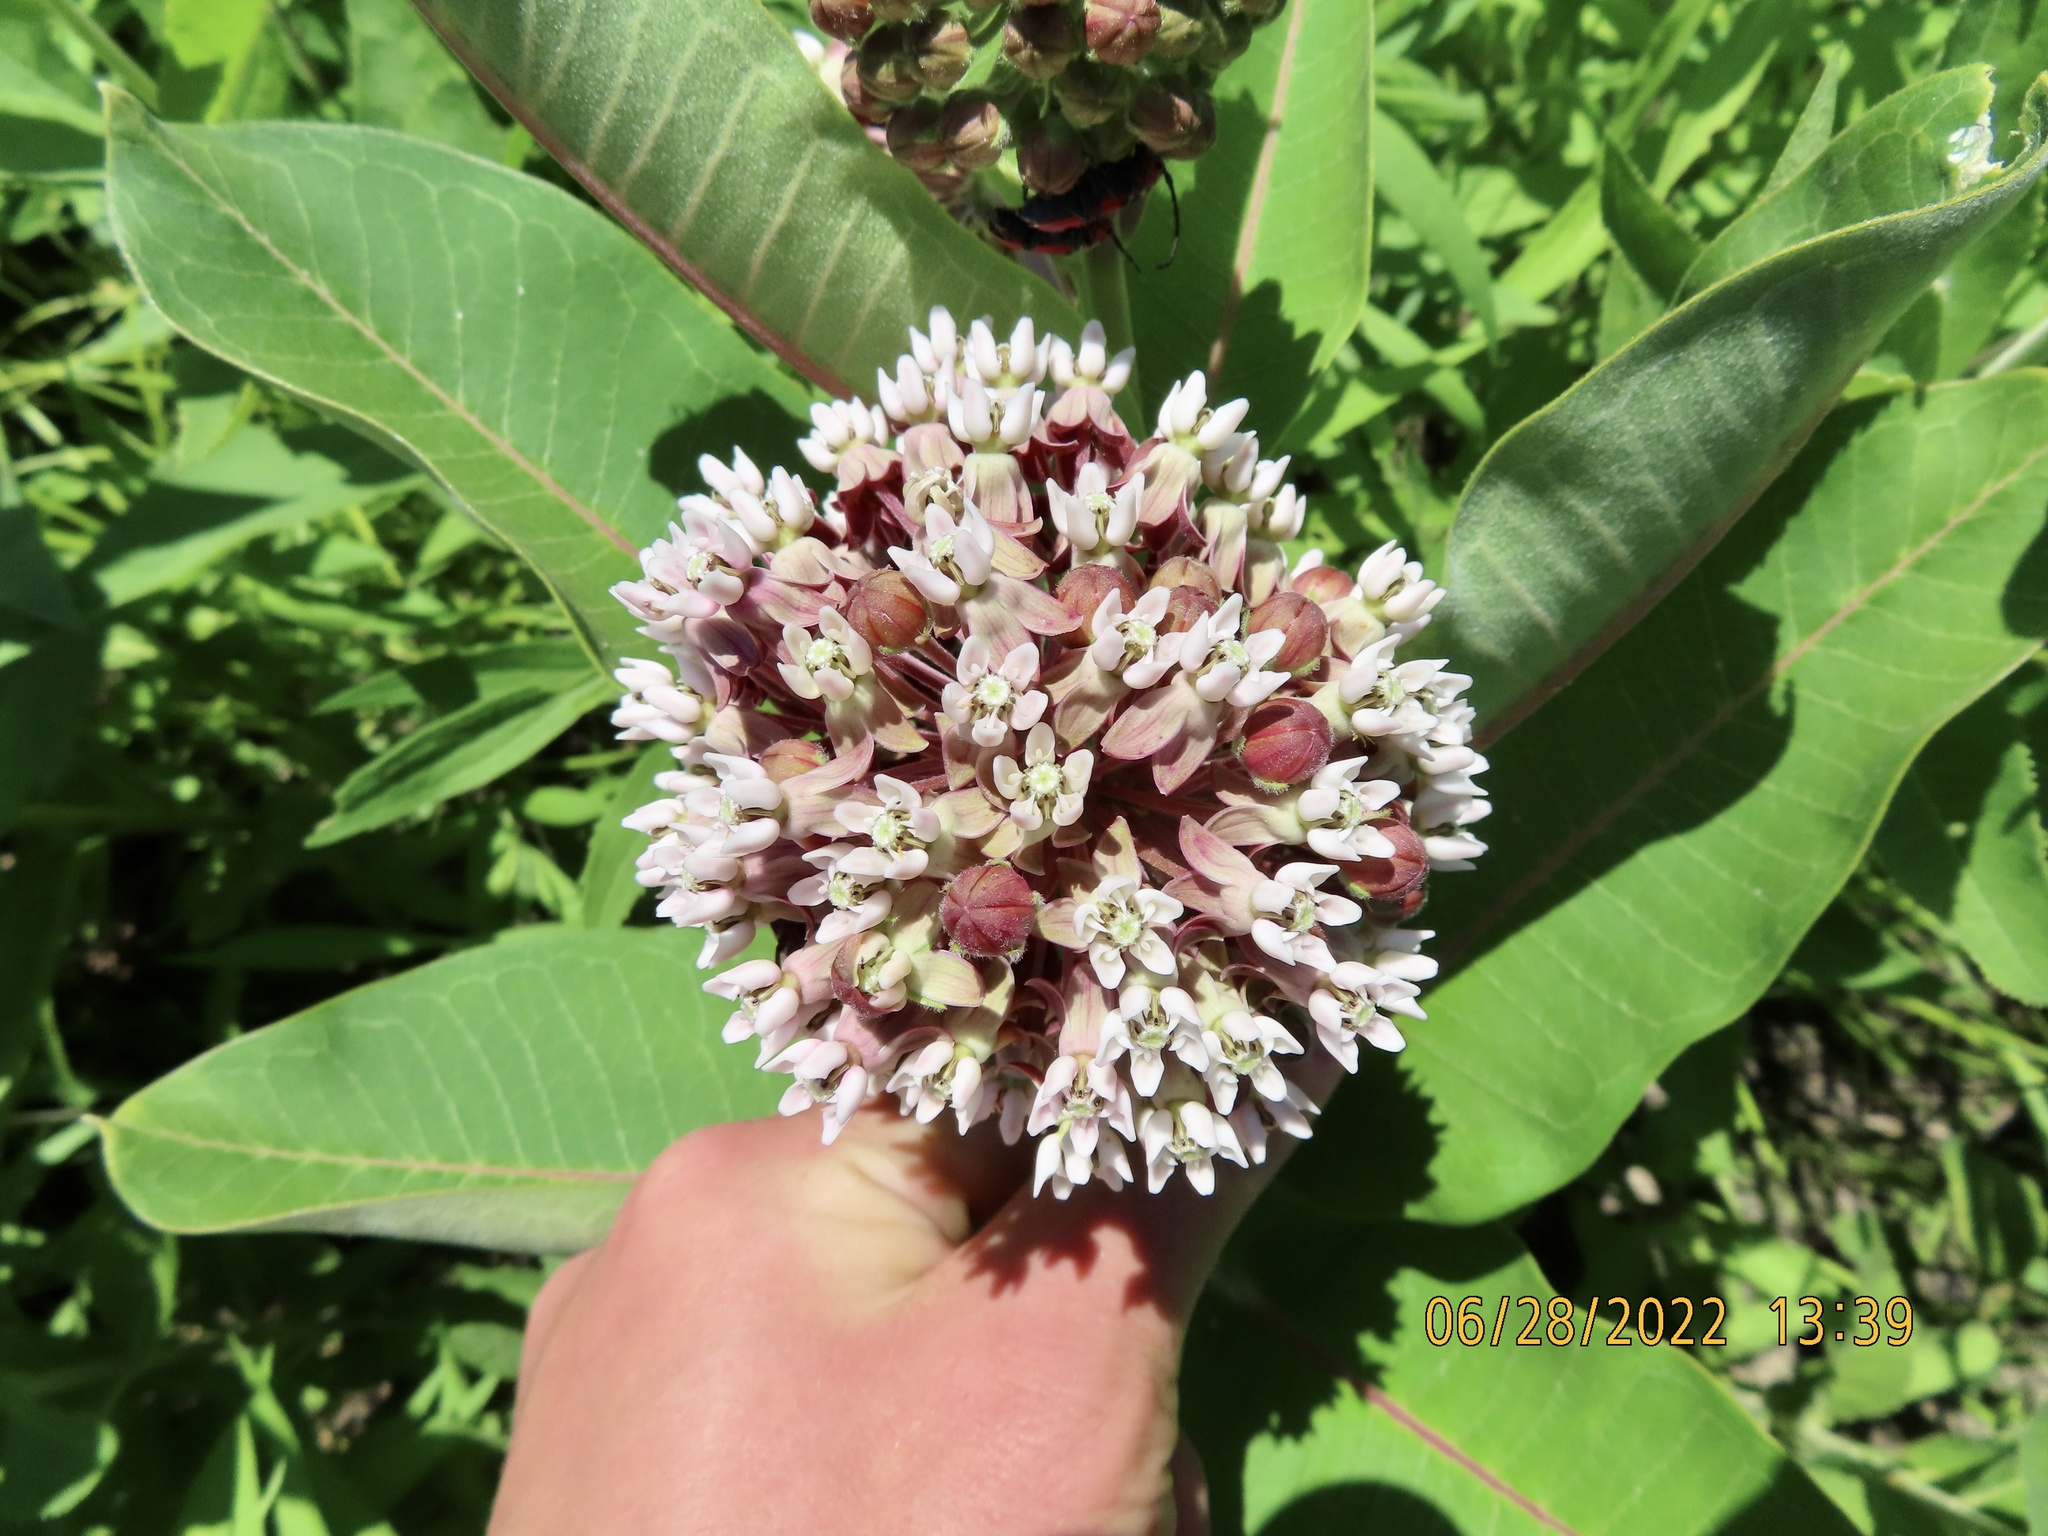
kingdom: Plantae
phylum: Tracheophyta
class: Magnoliopsida
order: Gentianales
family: Apocynaceae
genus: Asclepias
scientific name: Asclepias syriaca
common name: Common milkweed
